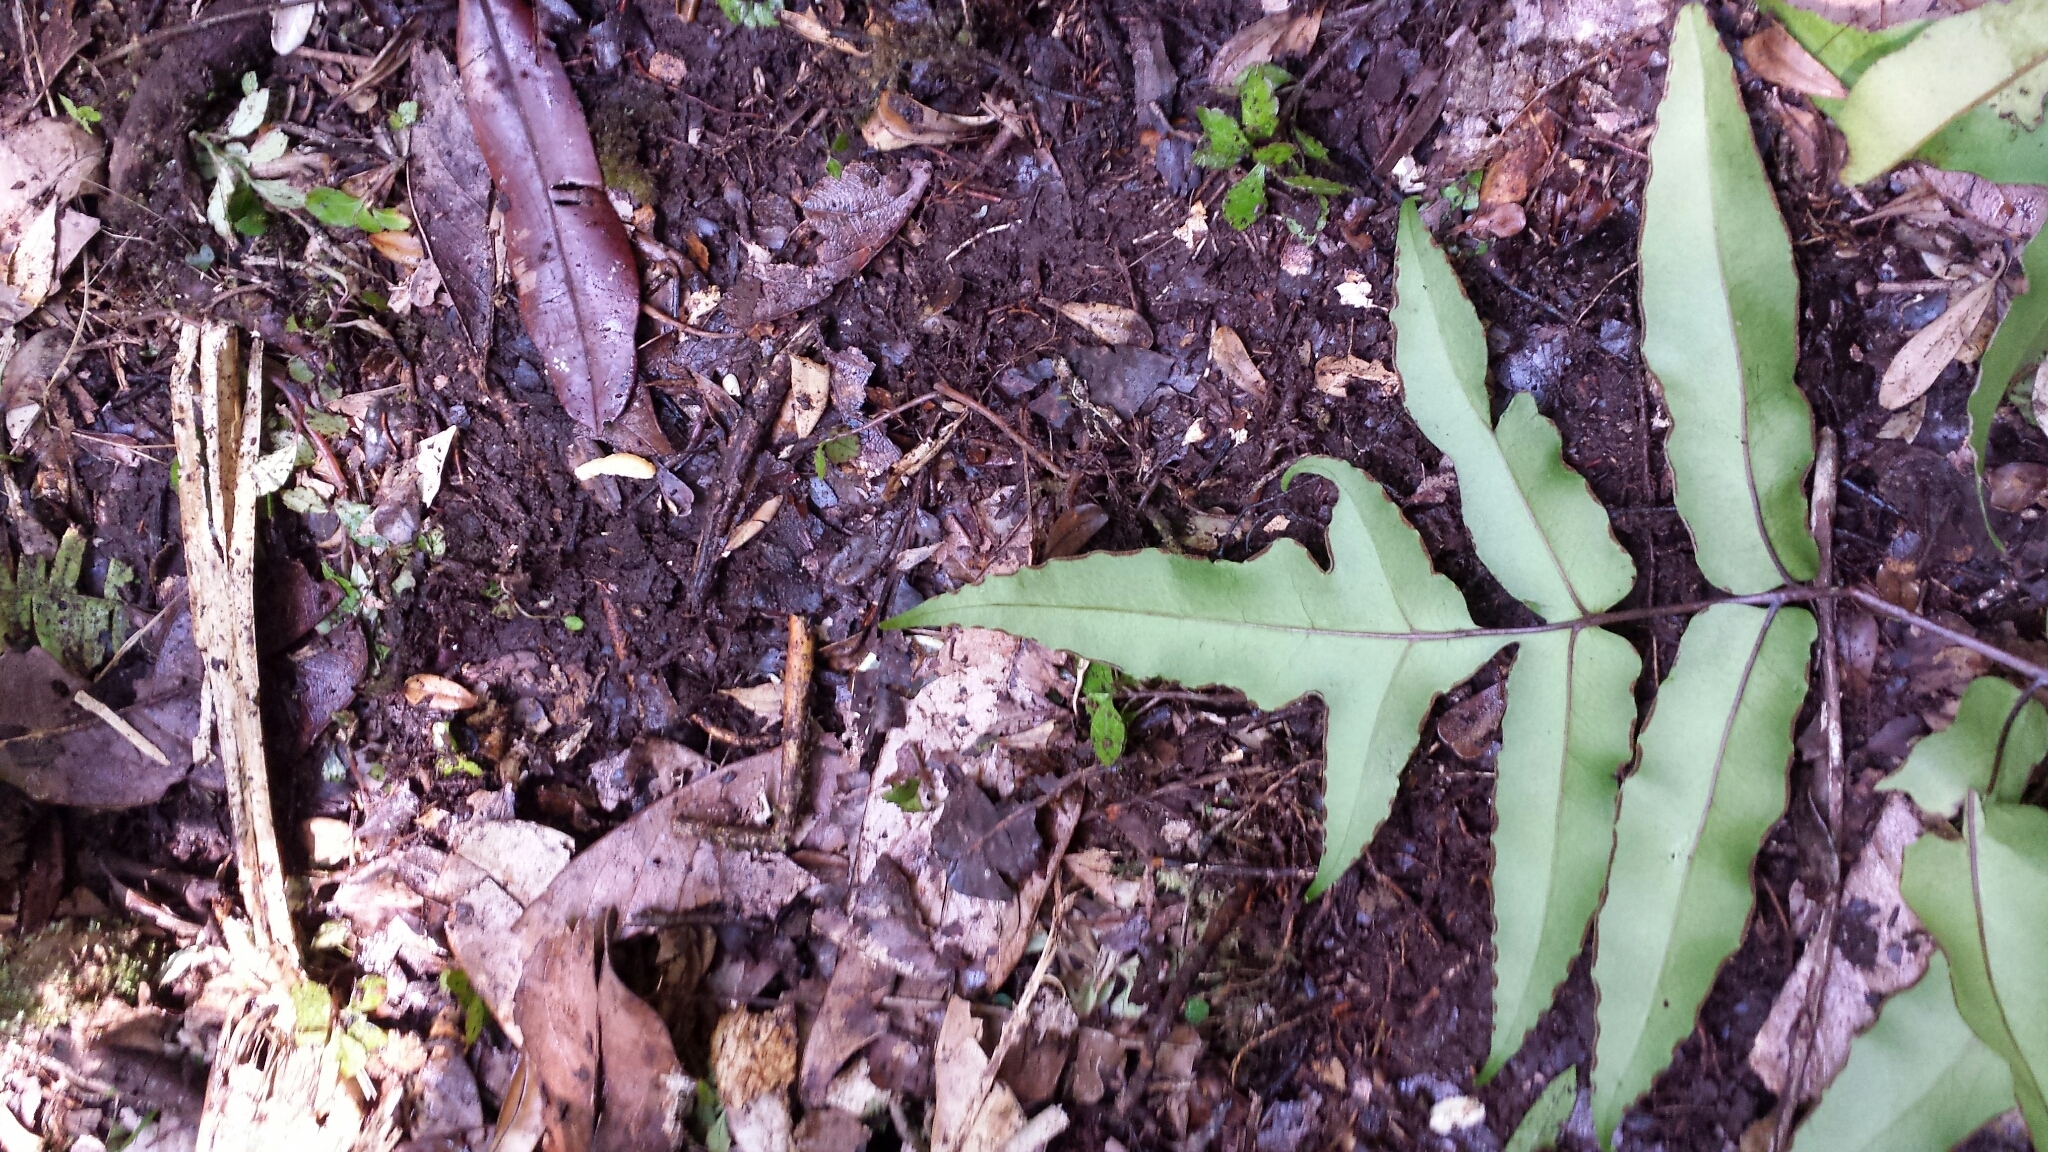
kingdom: Plantae
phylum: Tracheophyta
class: Polypodiopsida
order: Polypodiales
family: Dennstaedtiaceae
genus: Blotiella
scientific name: Blotiella pubescens
